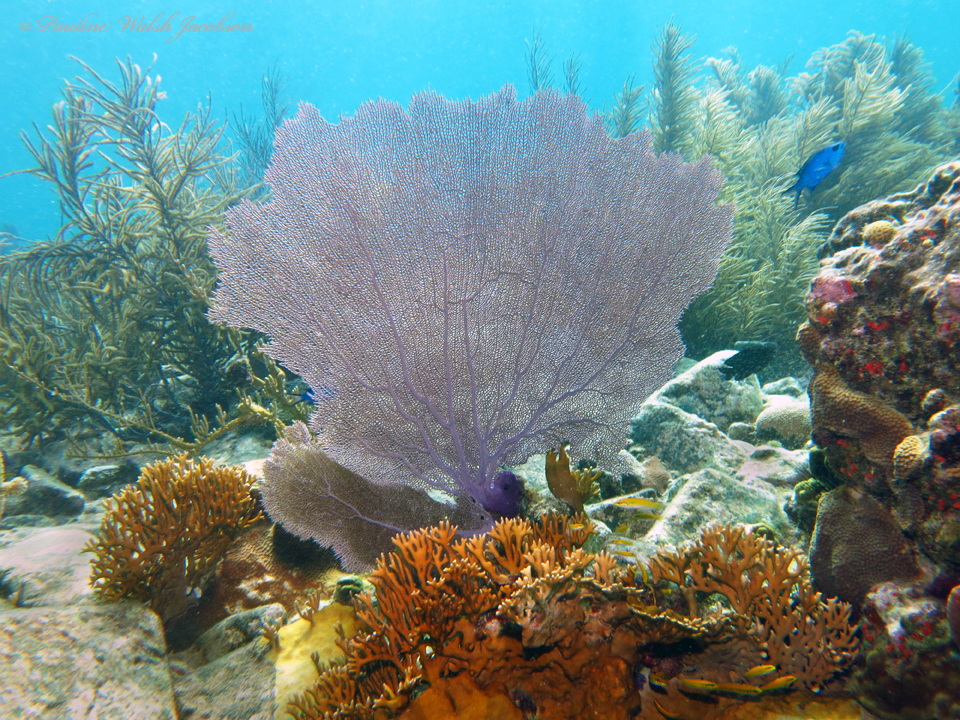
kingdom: Animalia
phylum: Cnidaria
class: Anthozoa
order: Malacalcyonacea
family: Gorgoniidae
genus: Gorgonia
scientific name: Gorgonia ventalina
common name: Common sea fan
